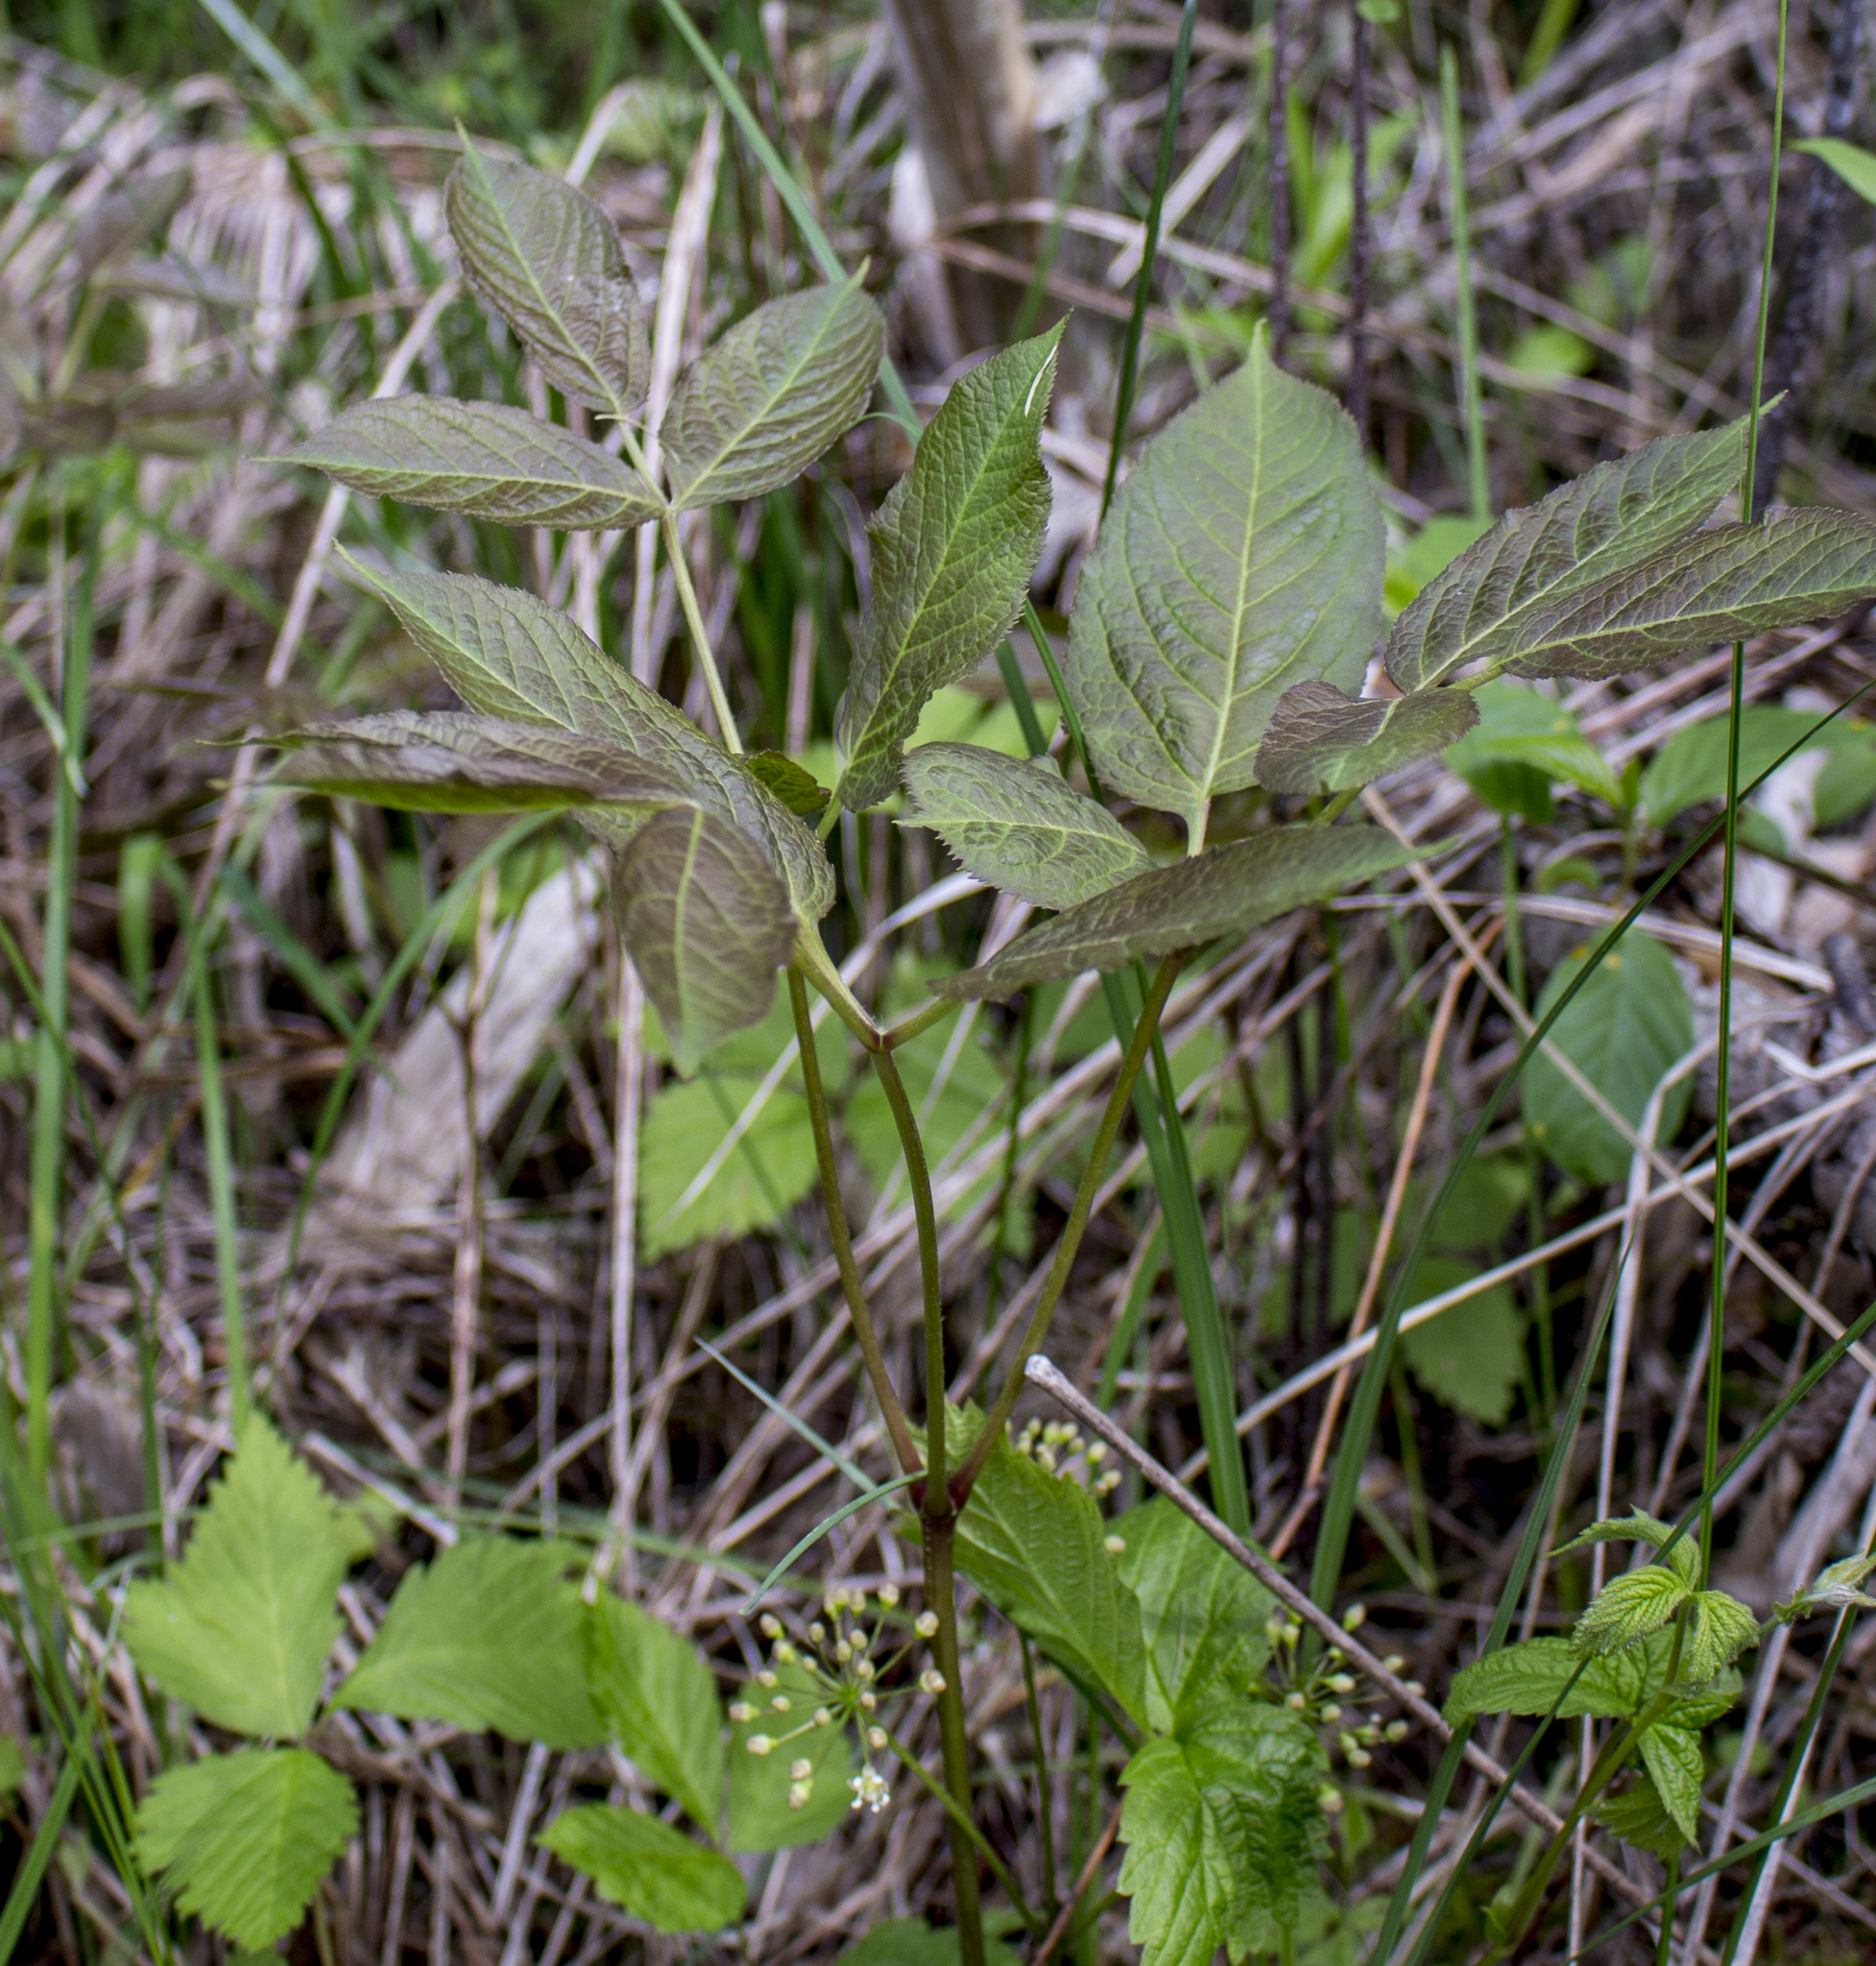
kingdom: Plantae
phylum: Tracheophyta
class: Magnoliopsida
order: Apiales
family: Araliaceae
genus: Aralia
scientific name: Aralia nudicaulis
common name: Wild sarsaparilla
